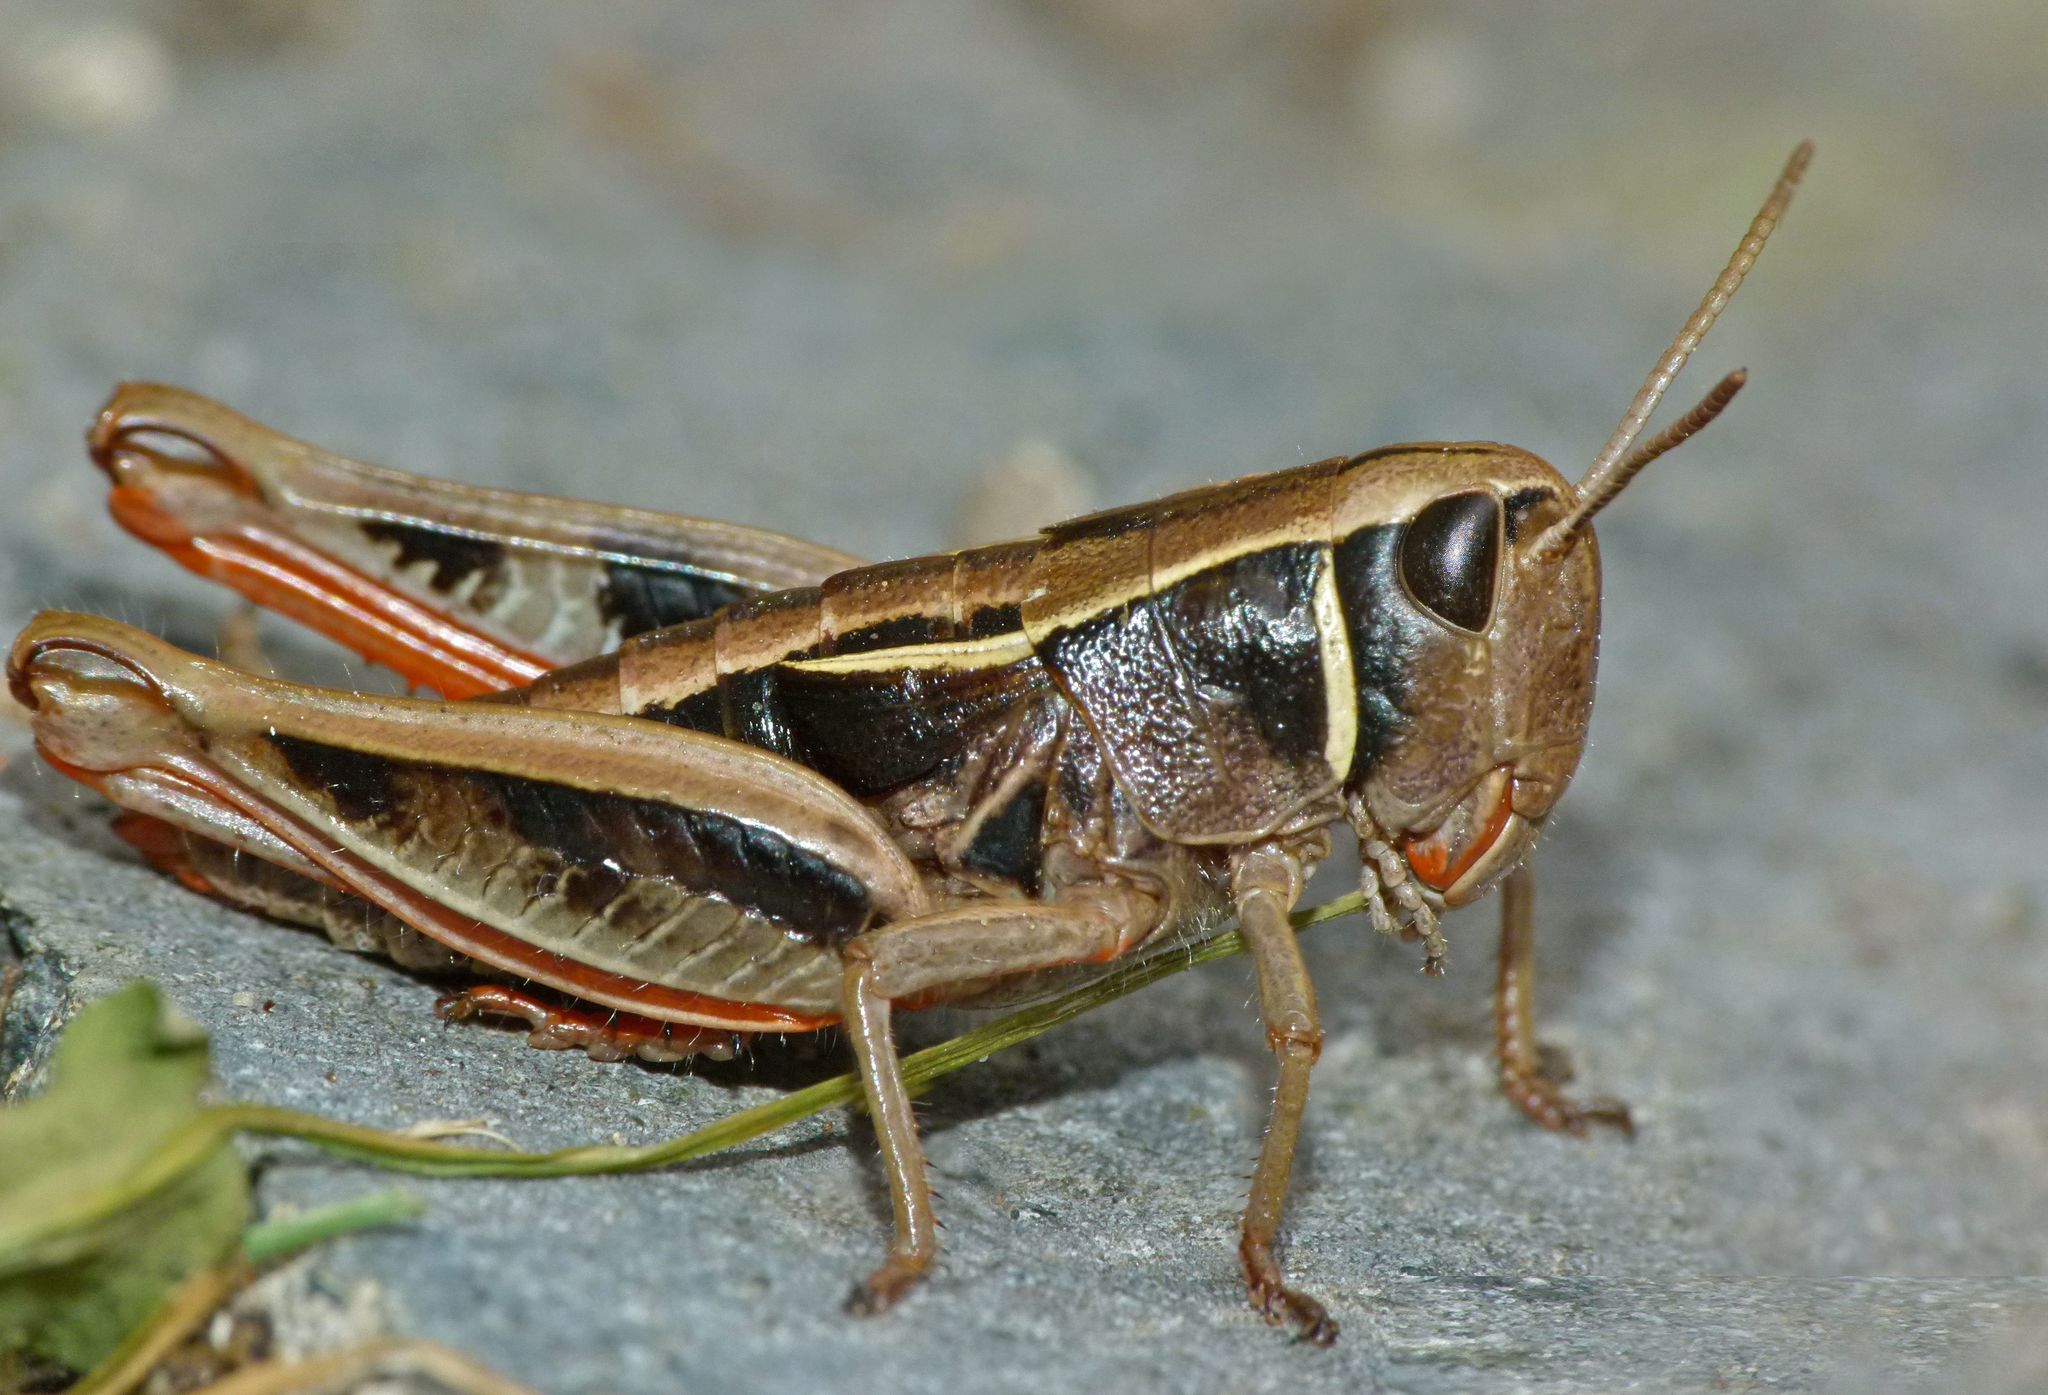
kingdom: Animalia
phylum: Arthropoda
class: Insecta
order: Orthoptera
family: Acrididae
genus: Sigaus
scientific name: Sigaus
